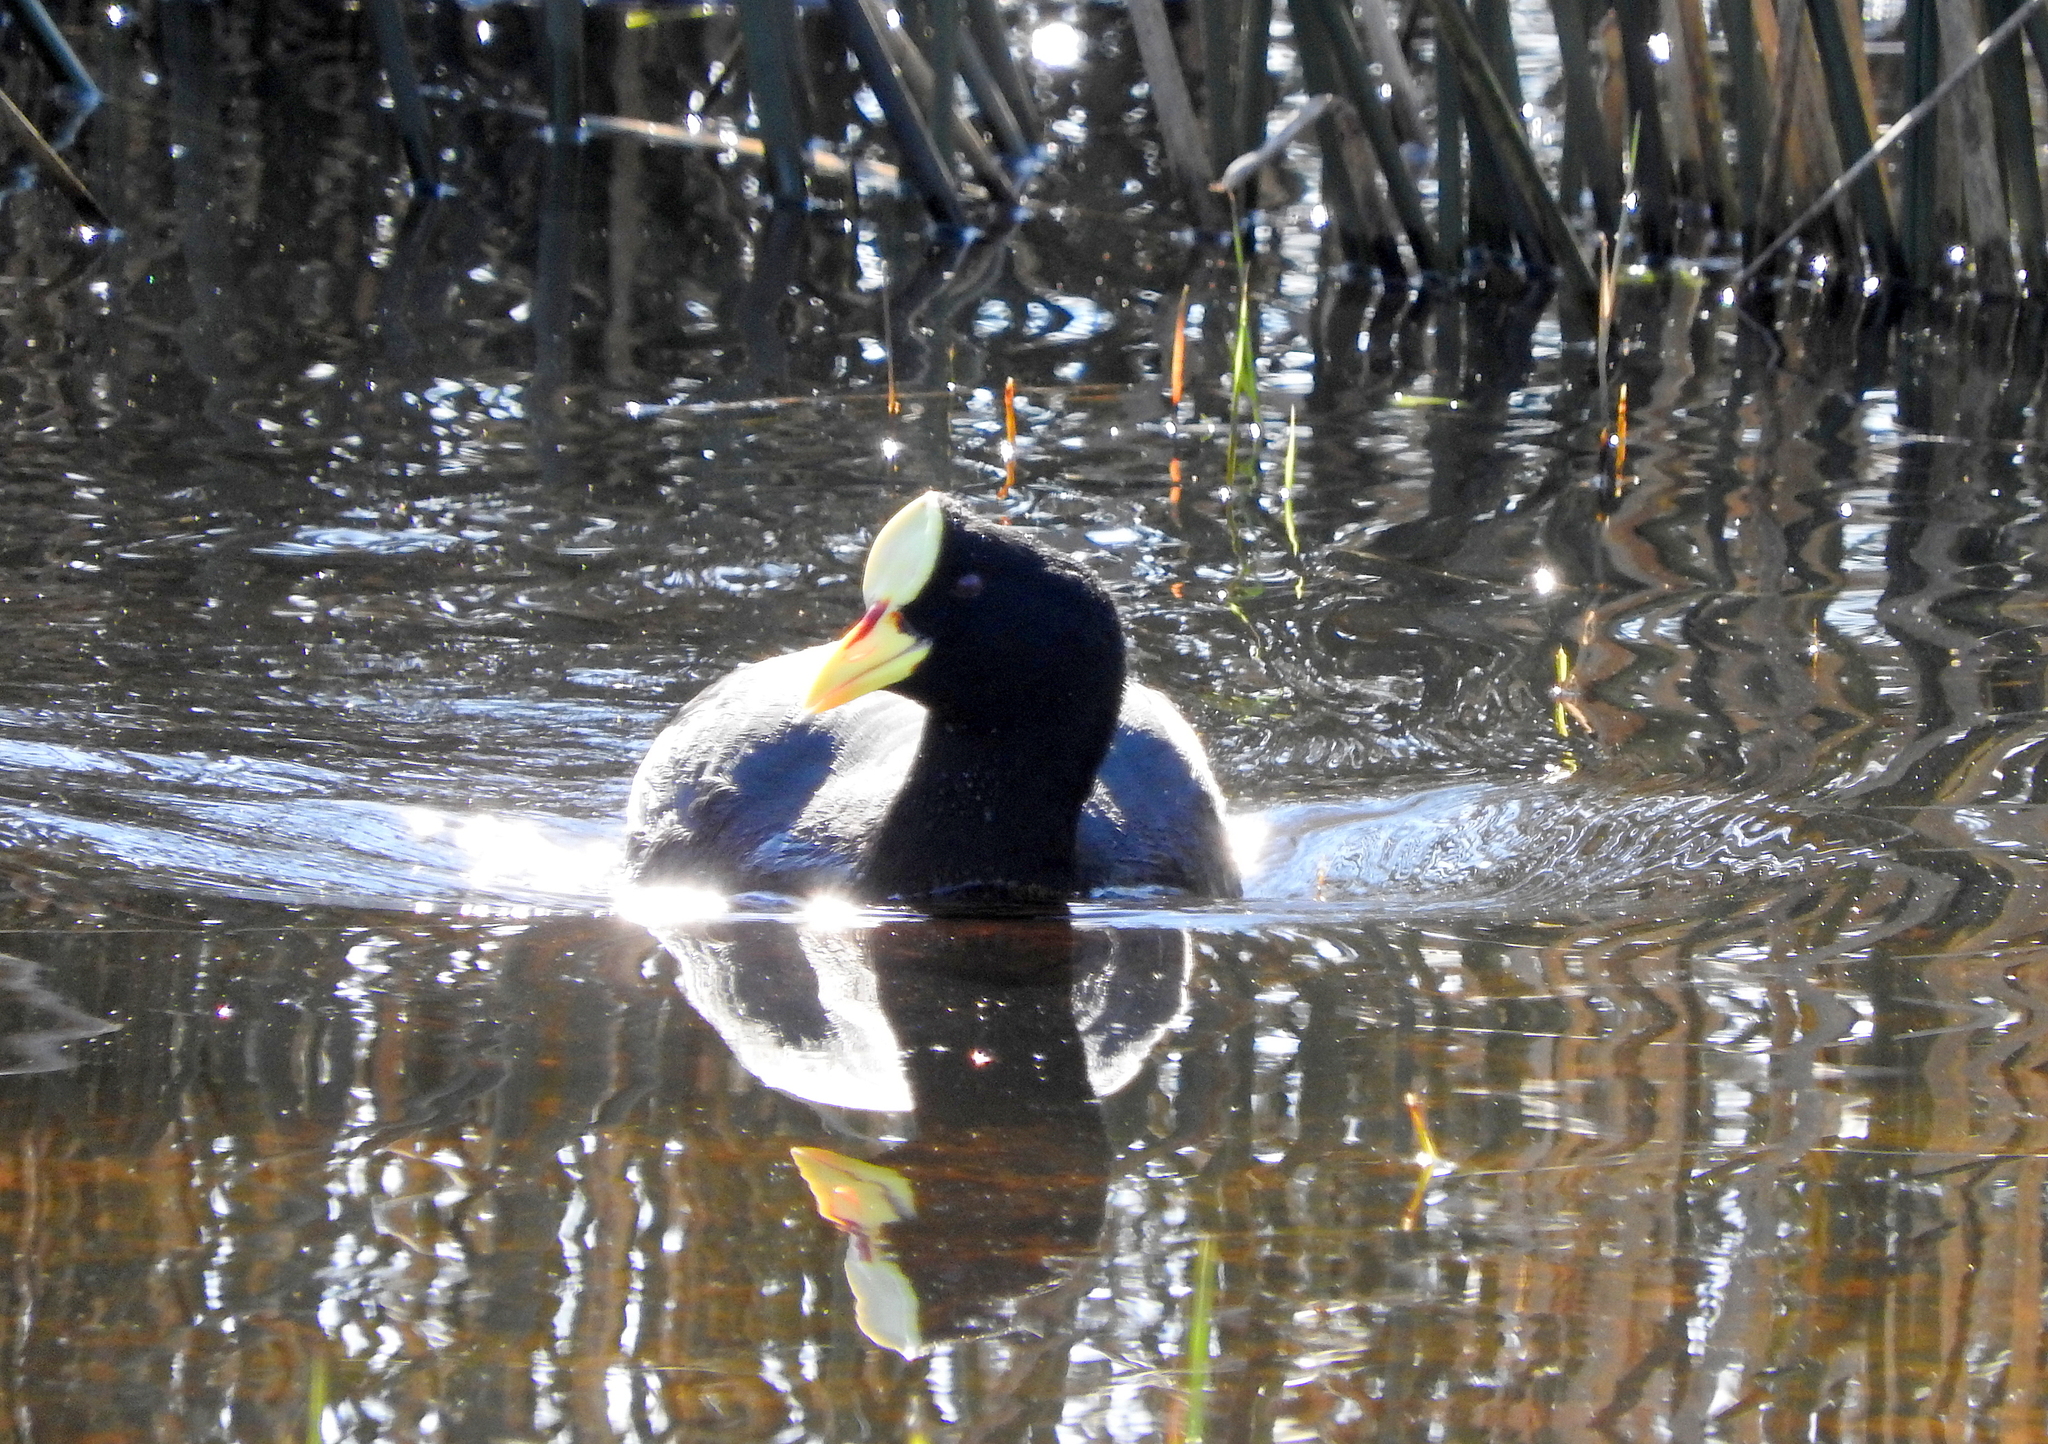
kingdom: Animalia
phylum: Chordata
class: Aves
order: Gruiformes
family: Rallidae
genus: Fulica
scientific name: Fulica armillata
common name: Red-gartered coot
